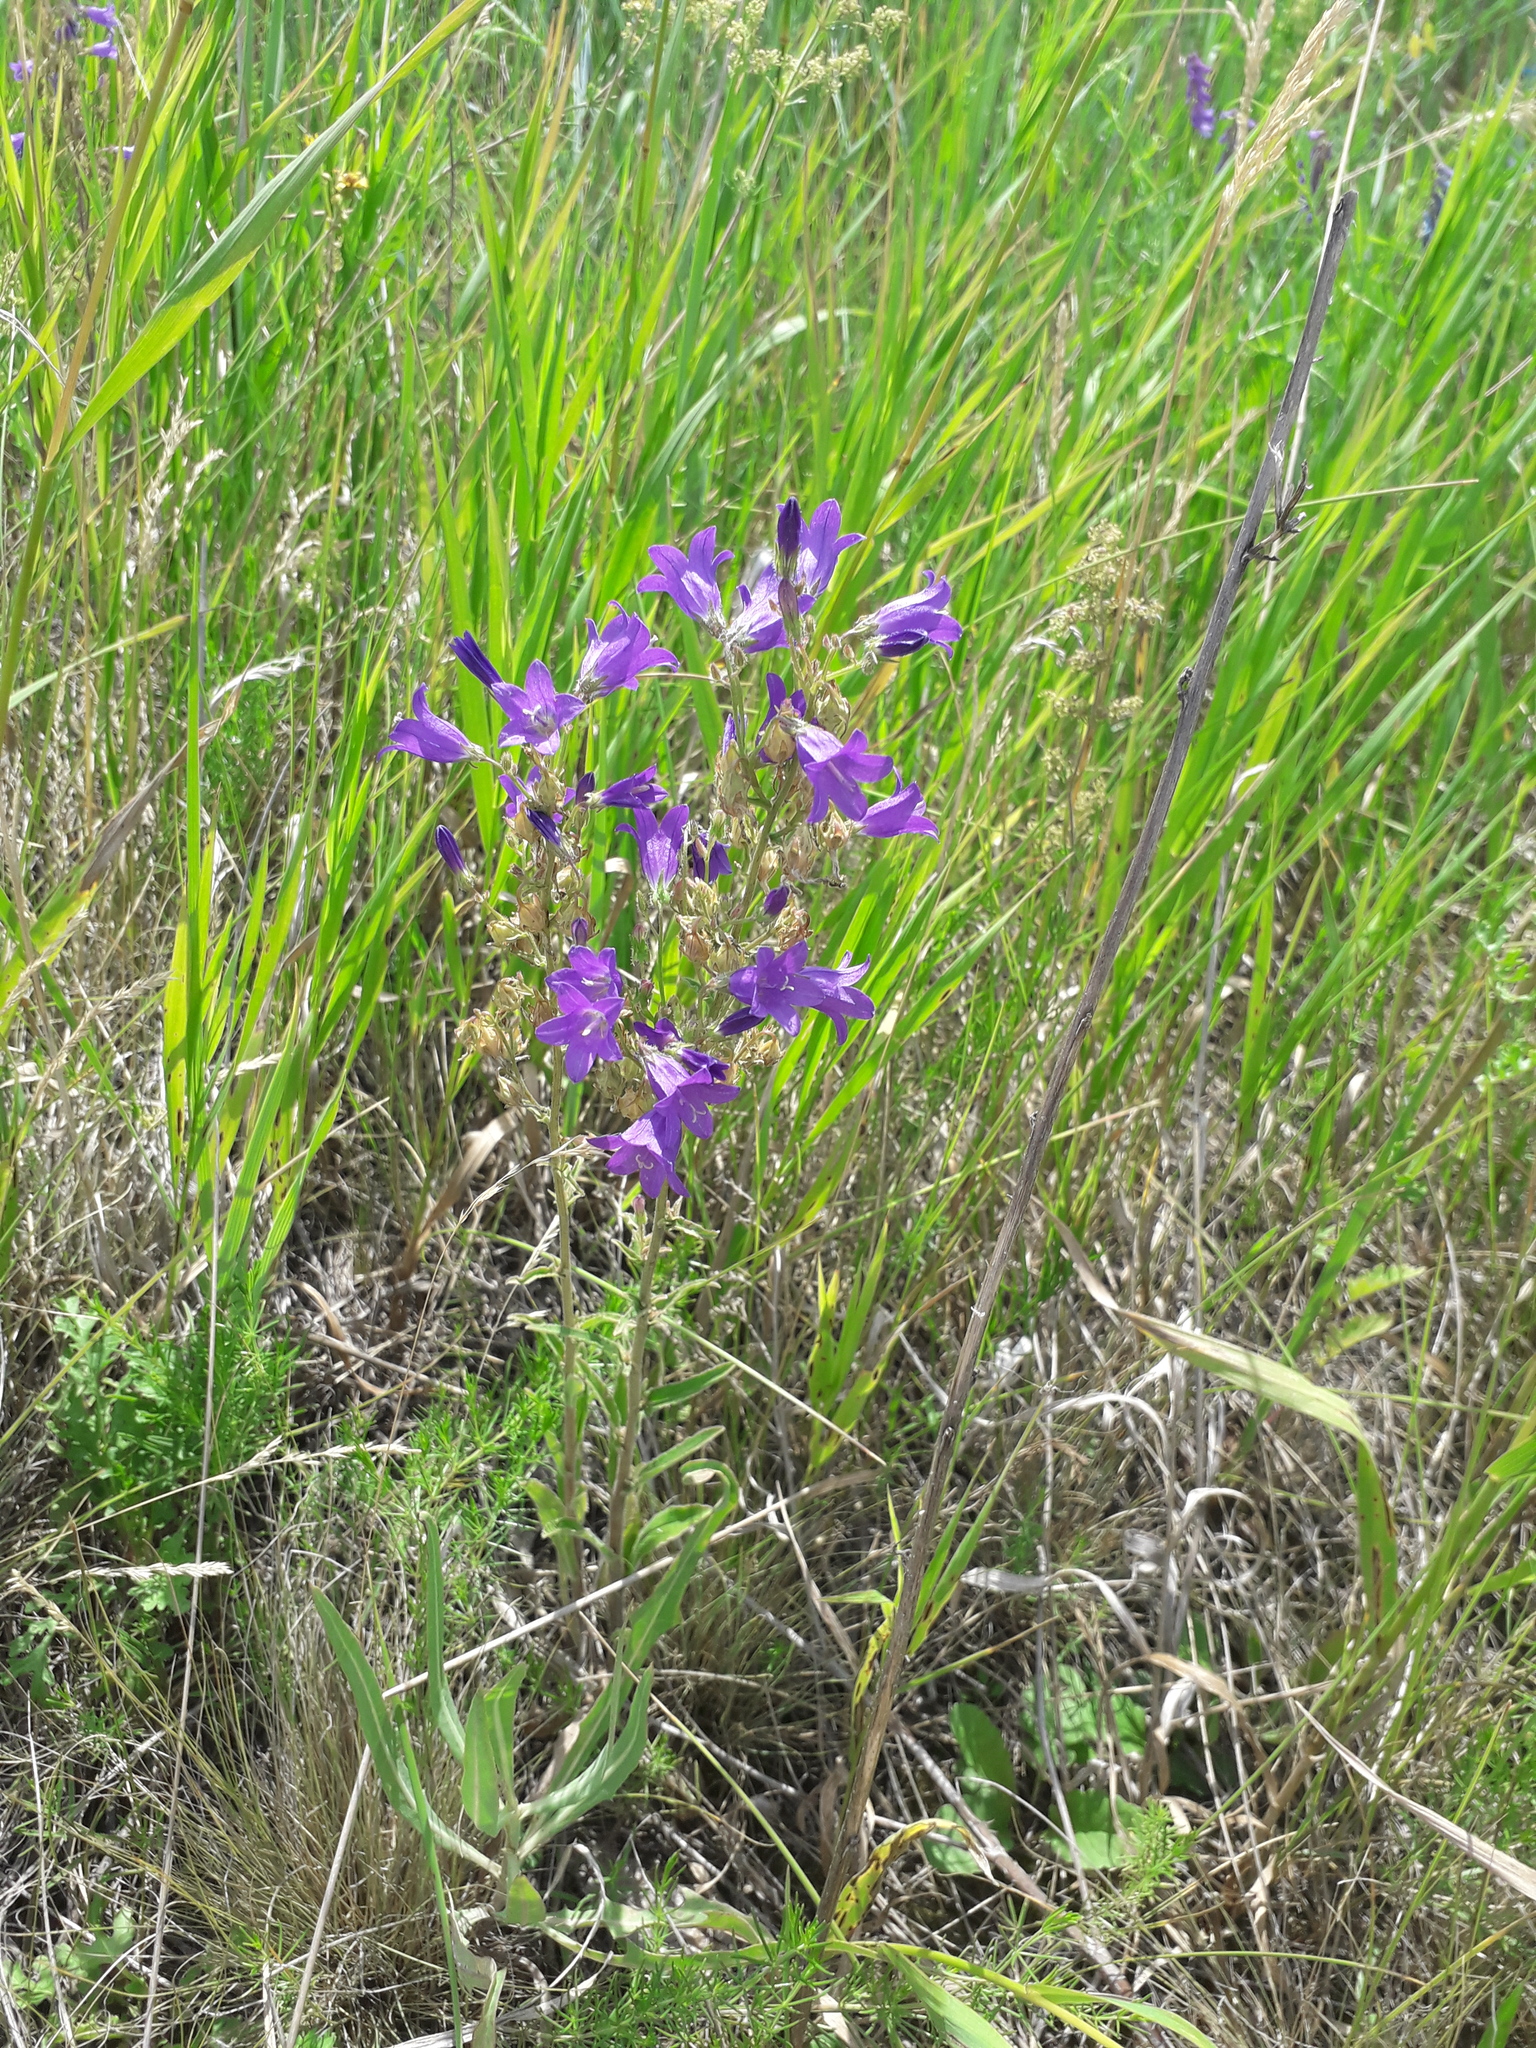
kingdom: Plantae
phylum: Tracheophyta
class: Magnoliopsida
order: Asterales
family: Campanulaceae
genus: Campanula
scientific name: Campanula sibirica
